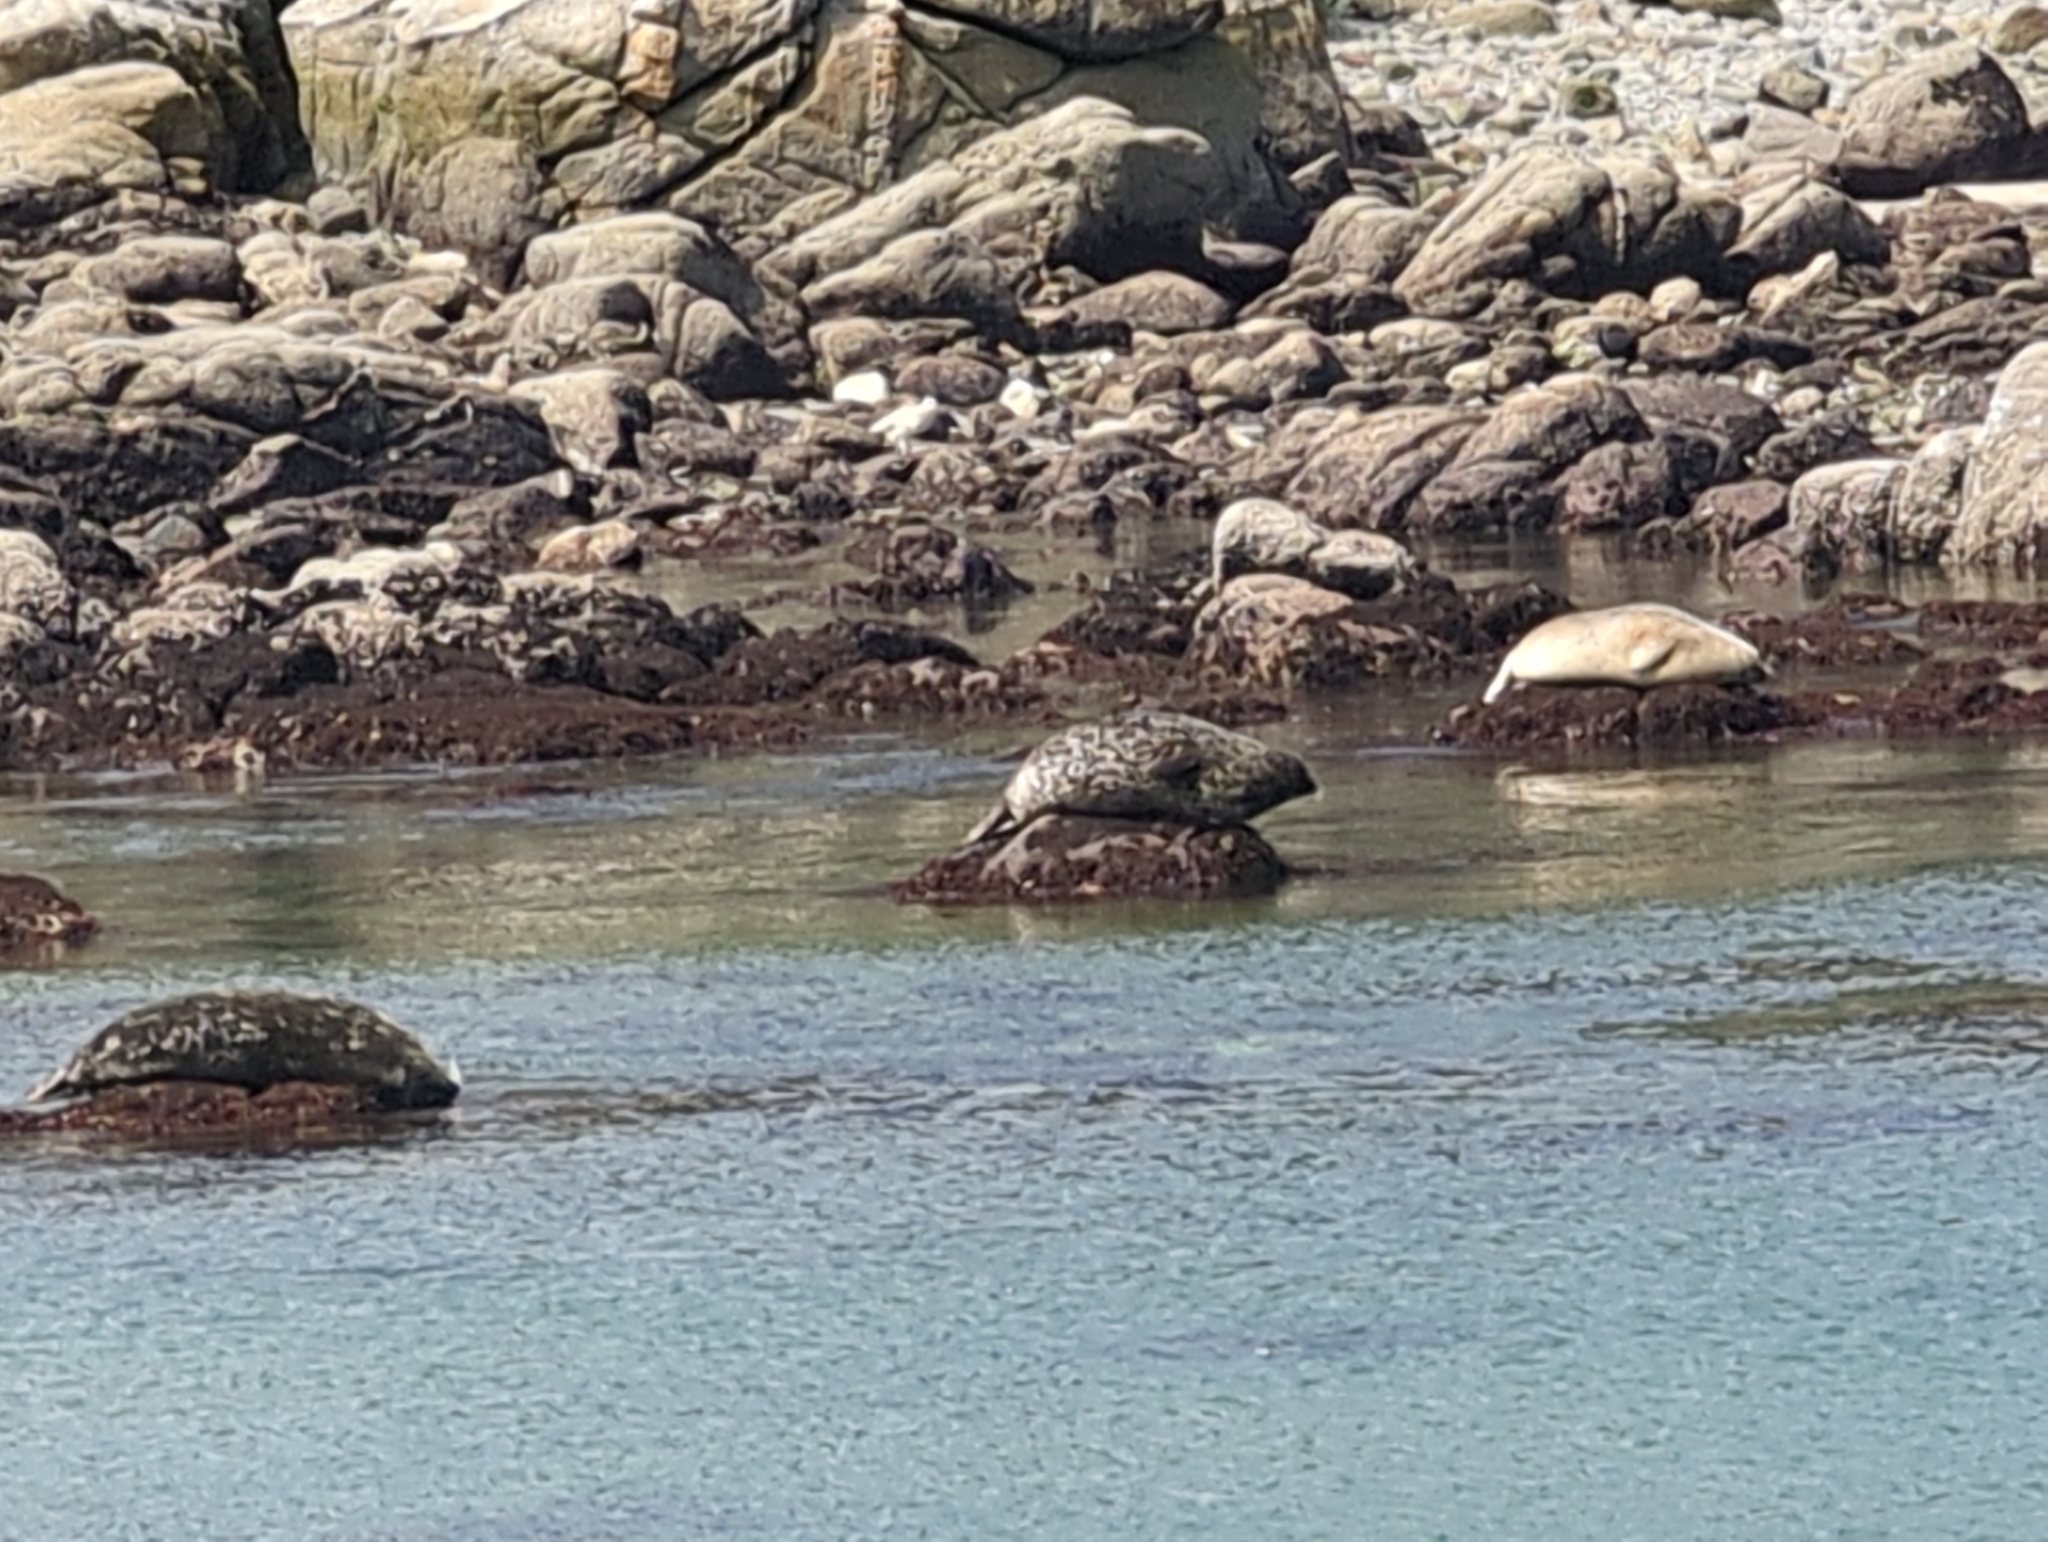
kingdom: Animalia
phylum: Chordata
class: Mammalia
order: Carnivora
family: Phocidae
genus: Phoca
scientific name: Phoca vitulina
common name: Harbor seal
